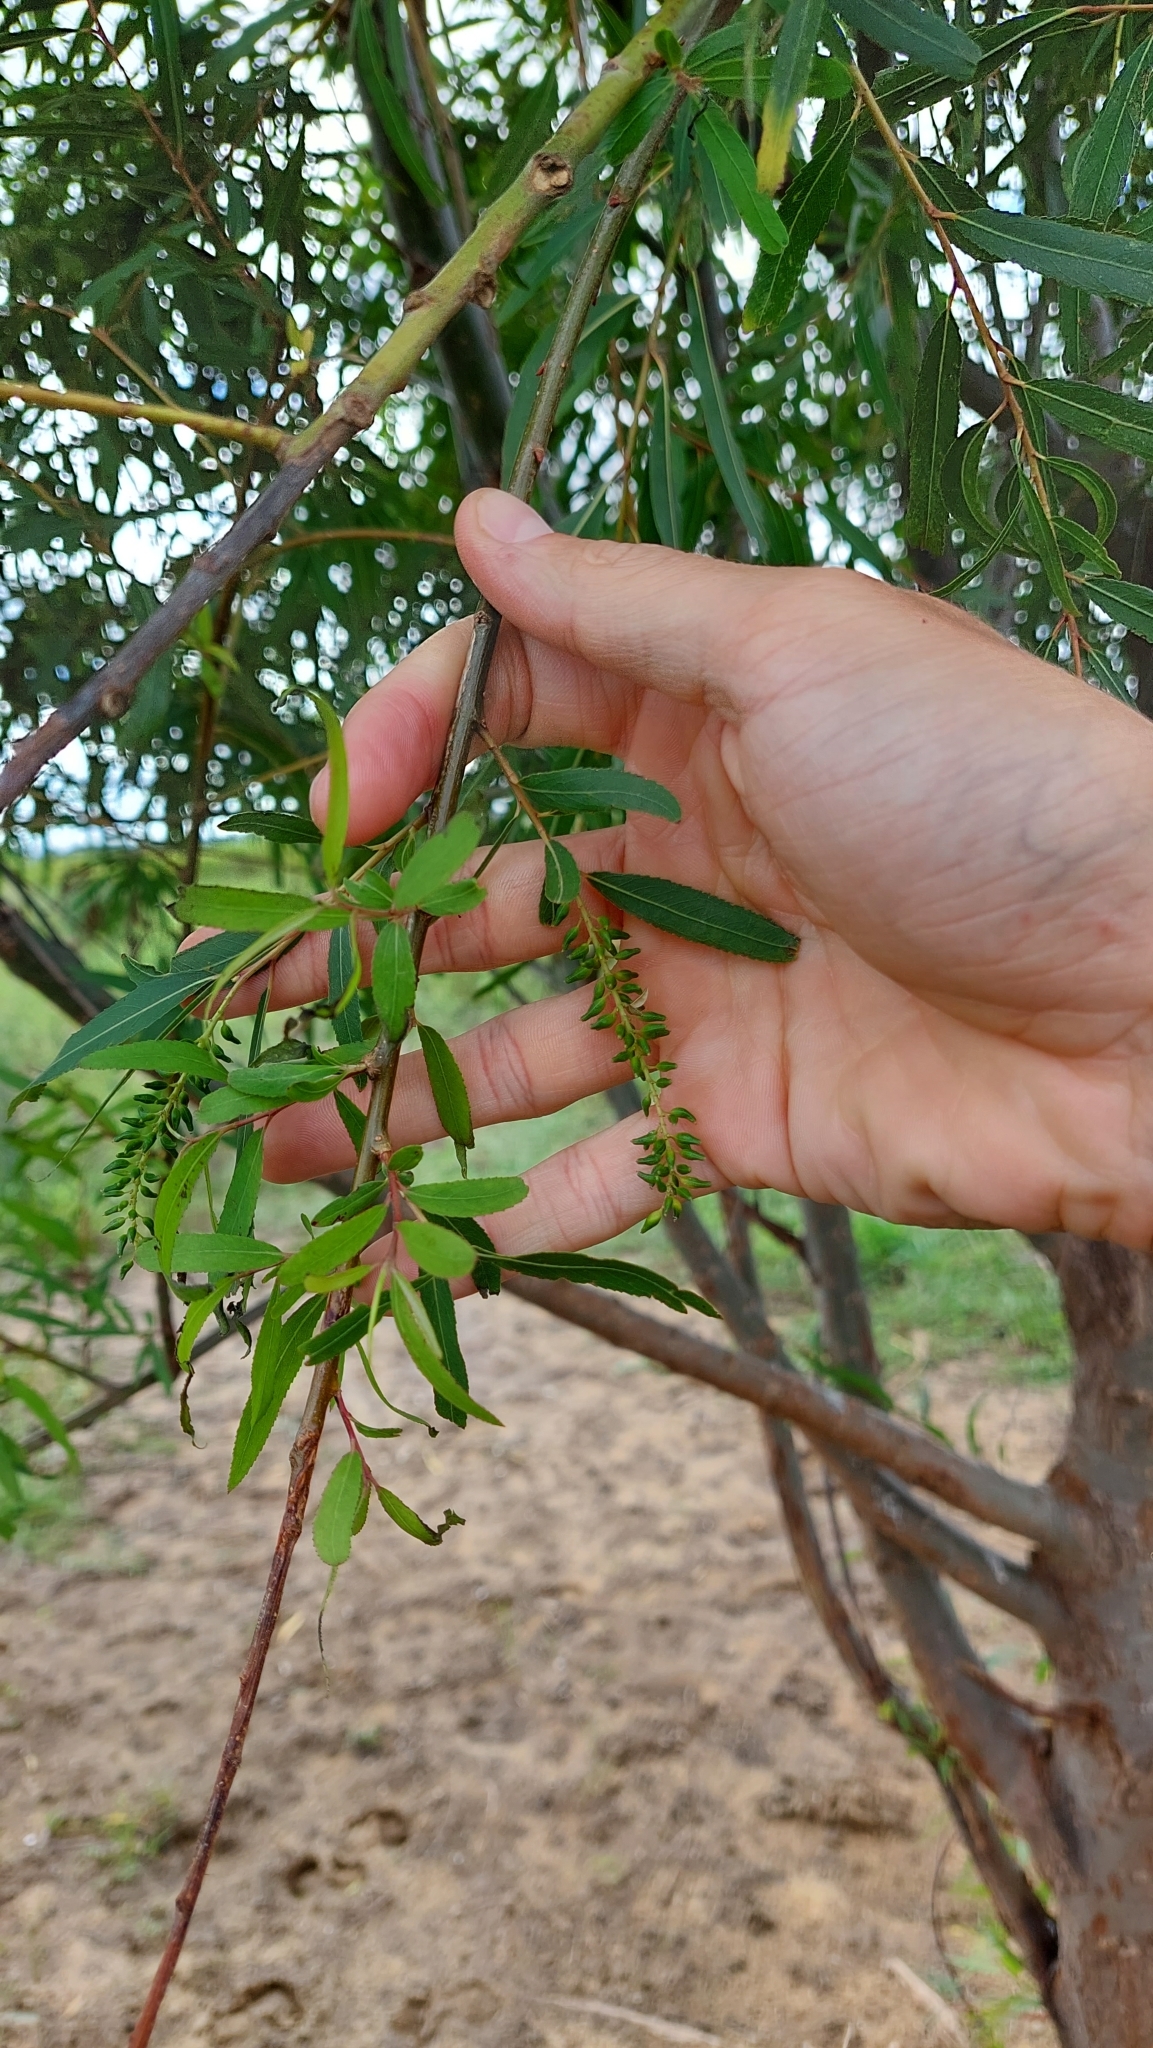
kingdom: Plantae
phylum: Tracheophyta
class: Magnoliopsida
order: Malpighiales
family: Salicaceae
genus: Salix
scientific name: Salix humboldtiana
